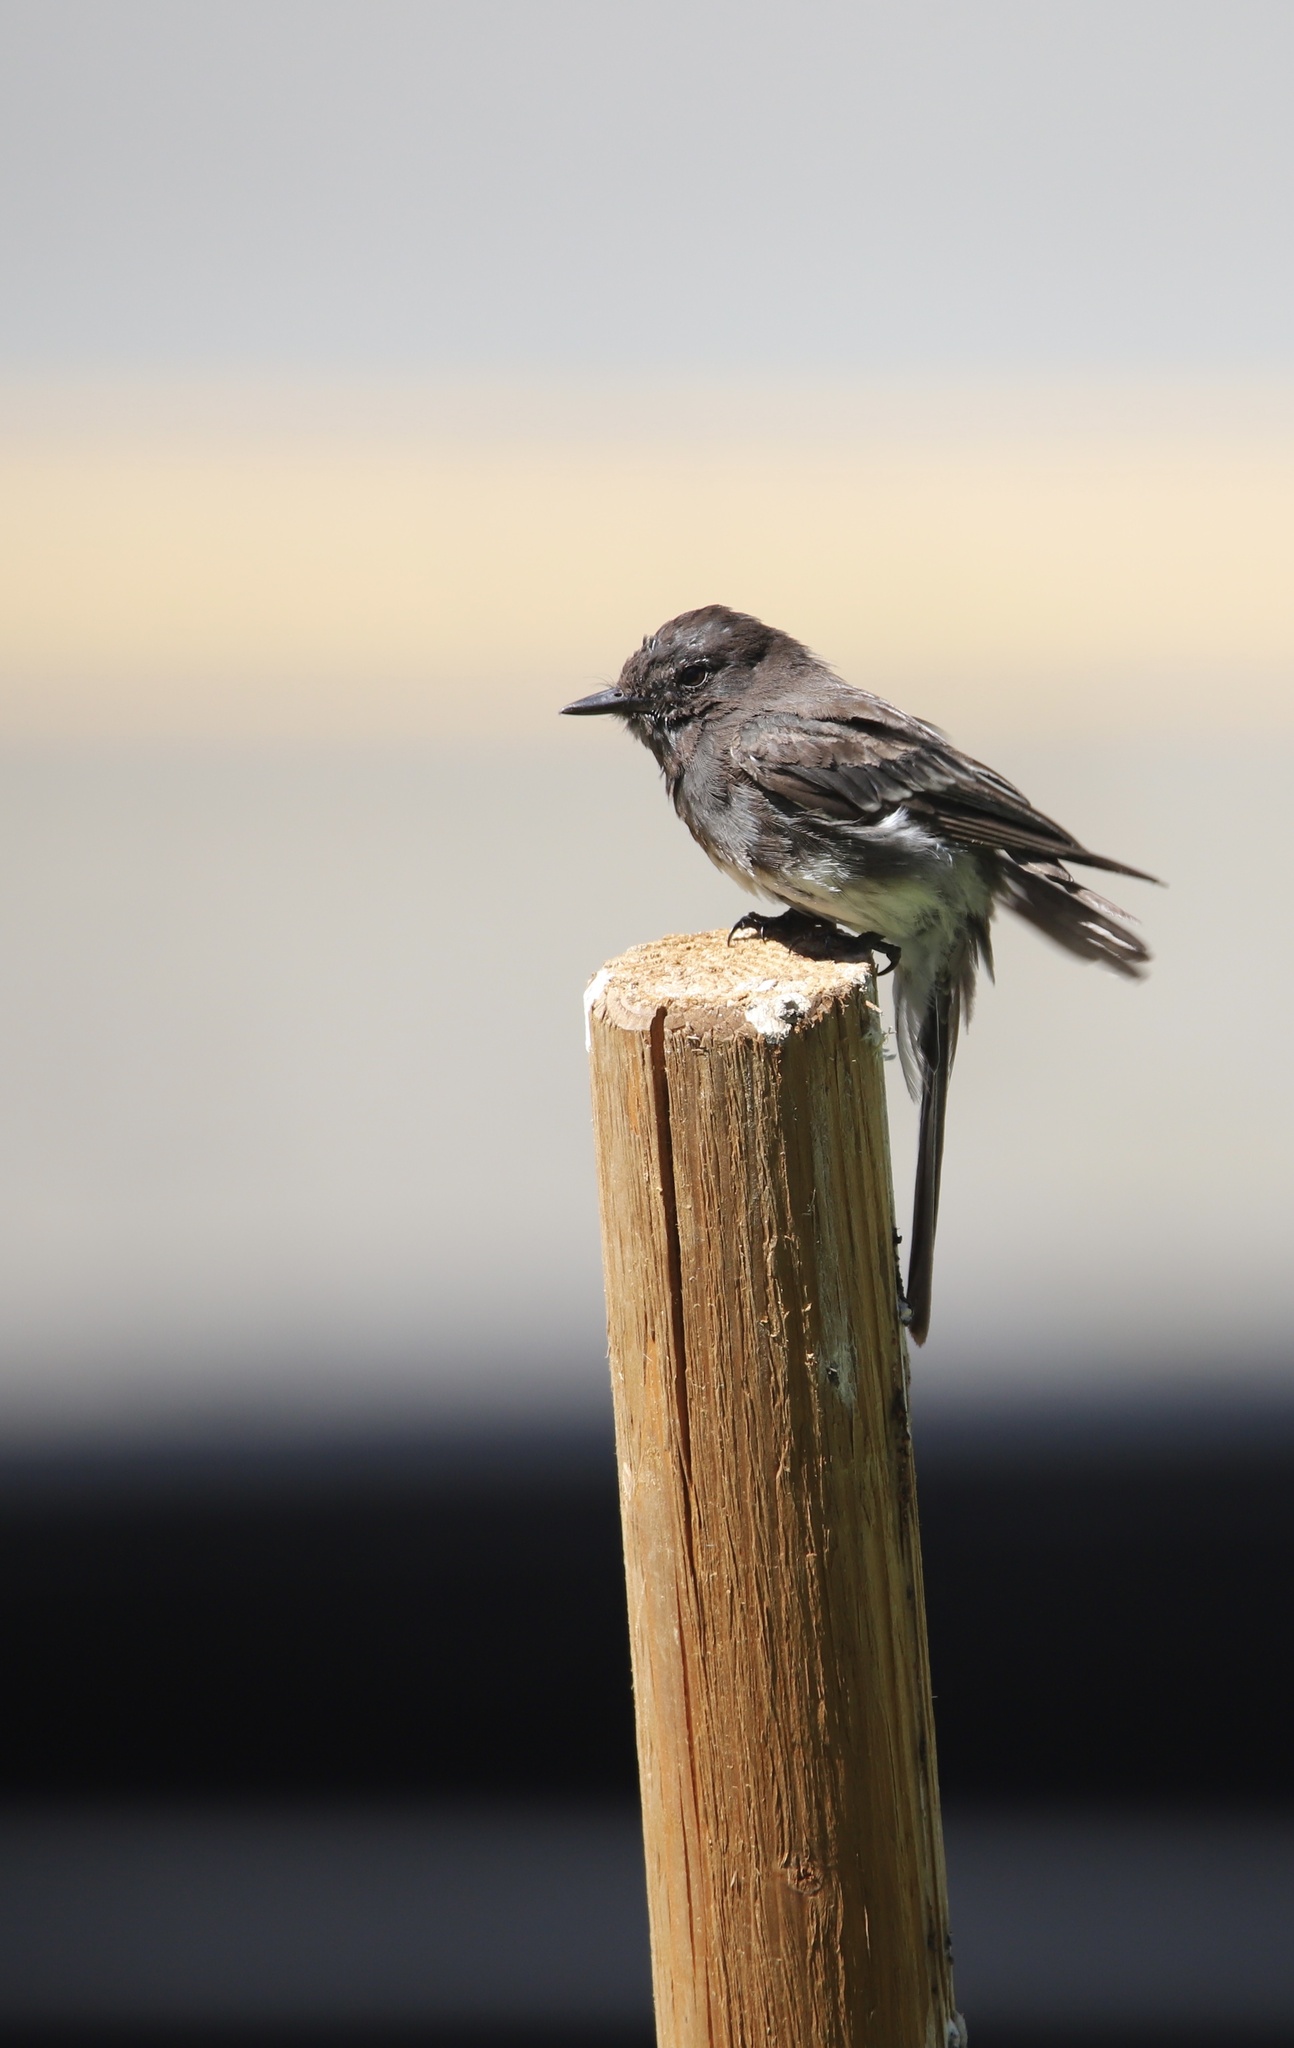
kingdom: Animalia
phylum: Chordata
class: Aves
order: Passeriformes
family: Tyrannidae
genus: Sayornis
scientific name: Sayornis nigricans
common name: Black phoebe
